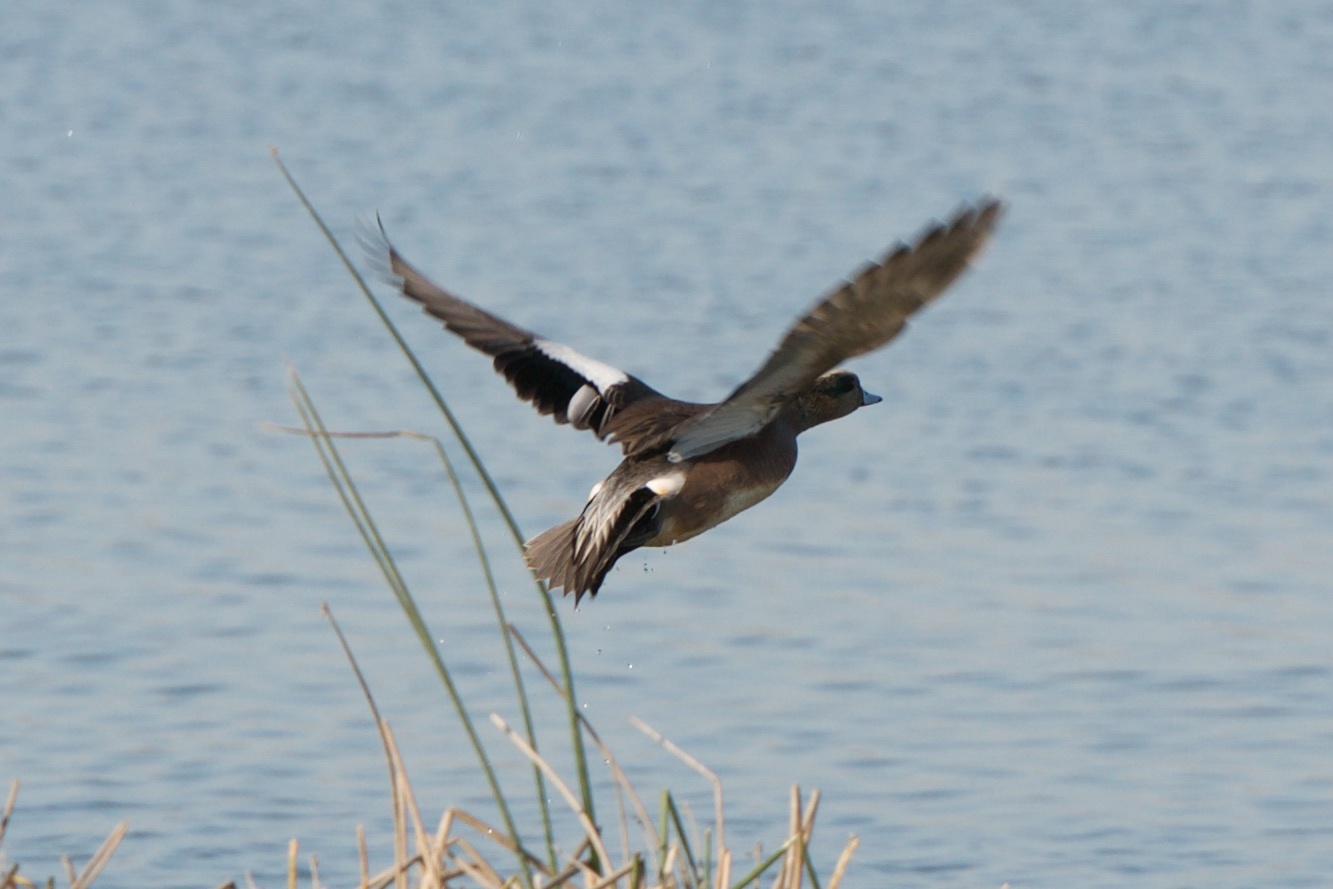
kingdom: Animalia
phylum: Chordata
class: Aves
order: Anseriformes
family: Anatidae
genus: Mareca
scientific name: Mareca americana
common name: American wigeon
